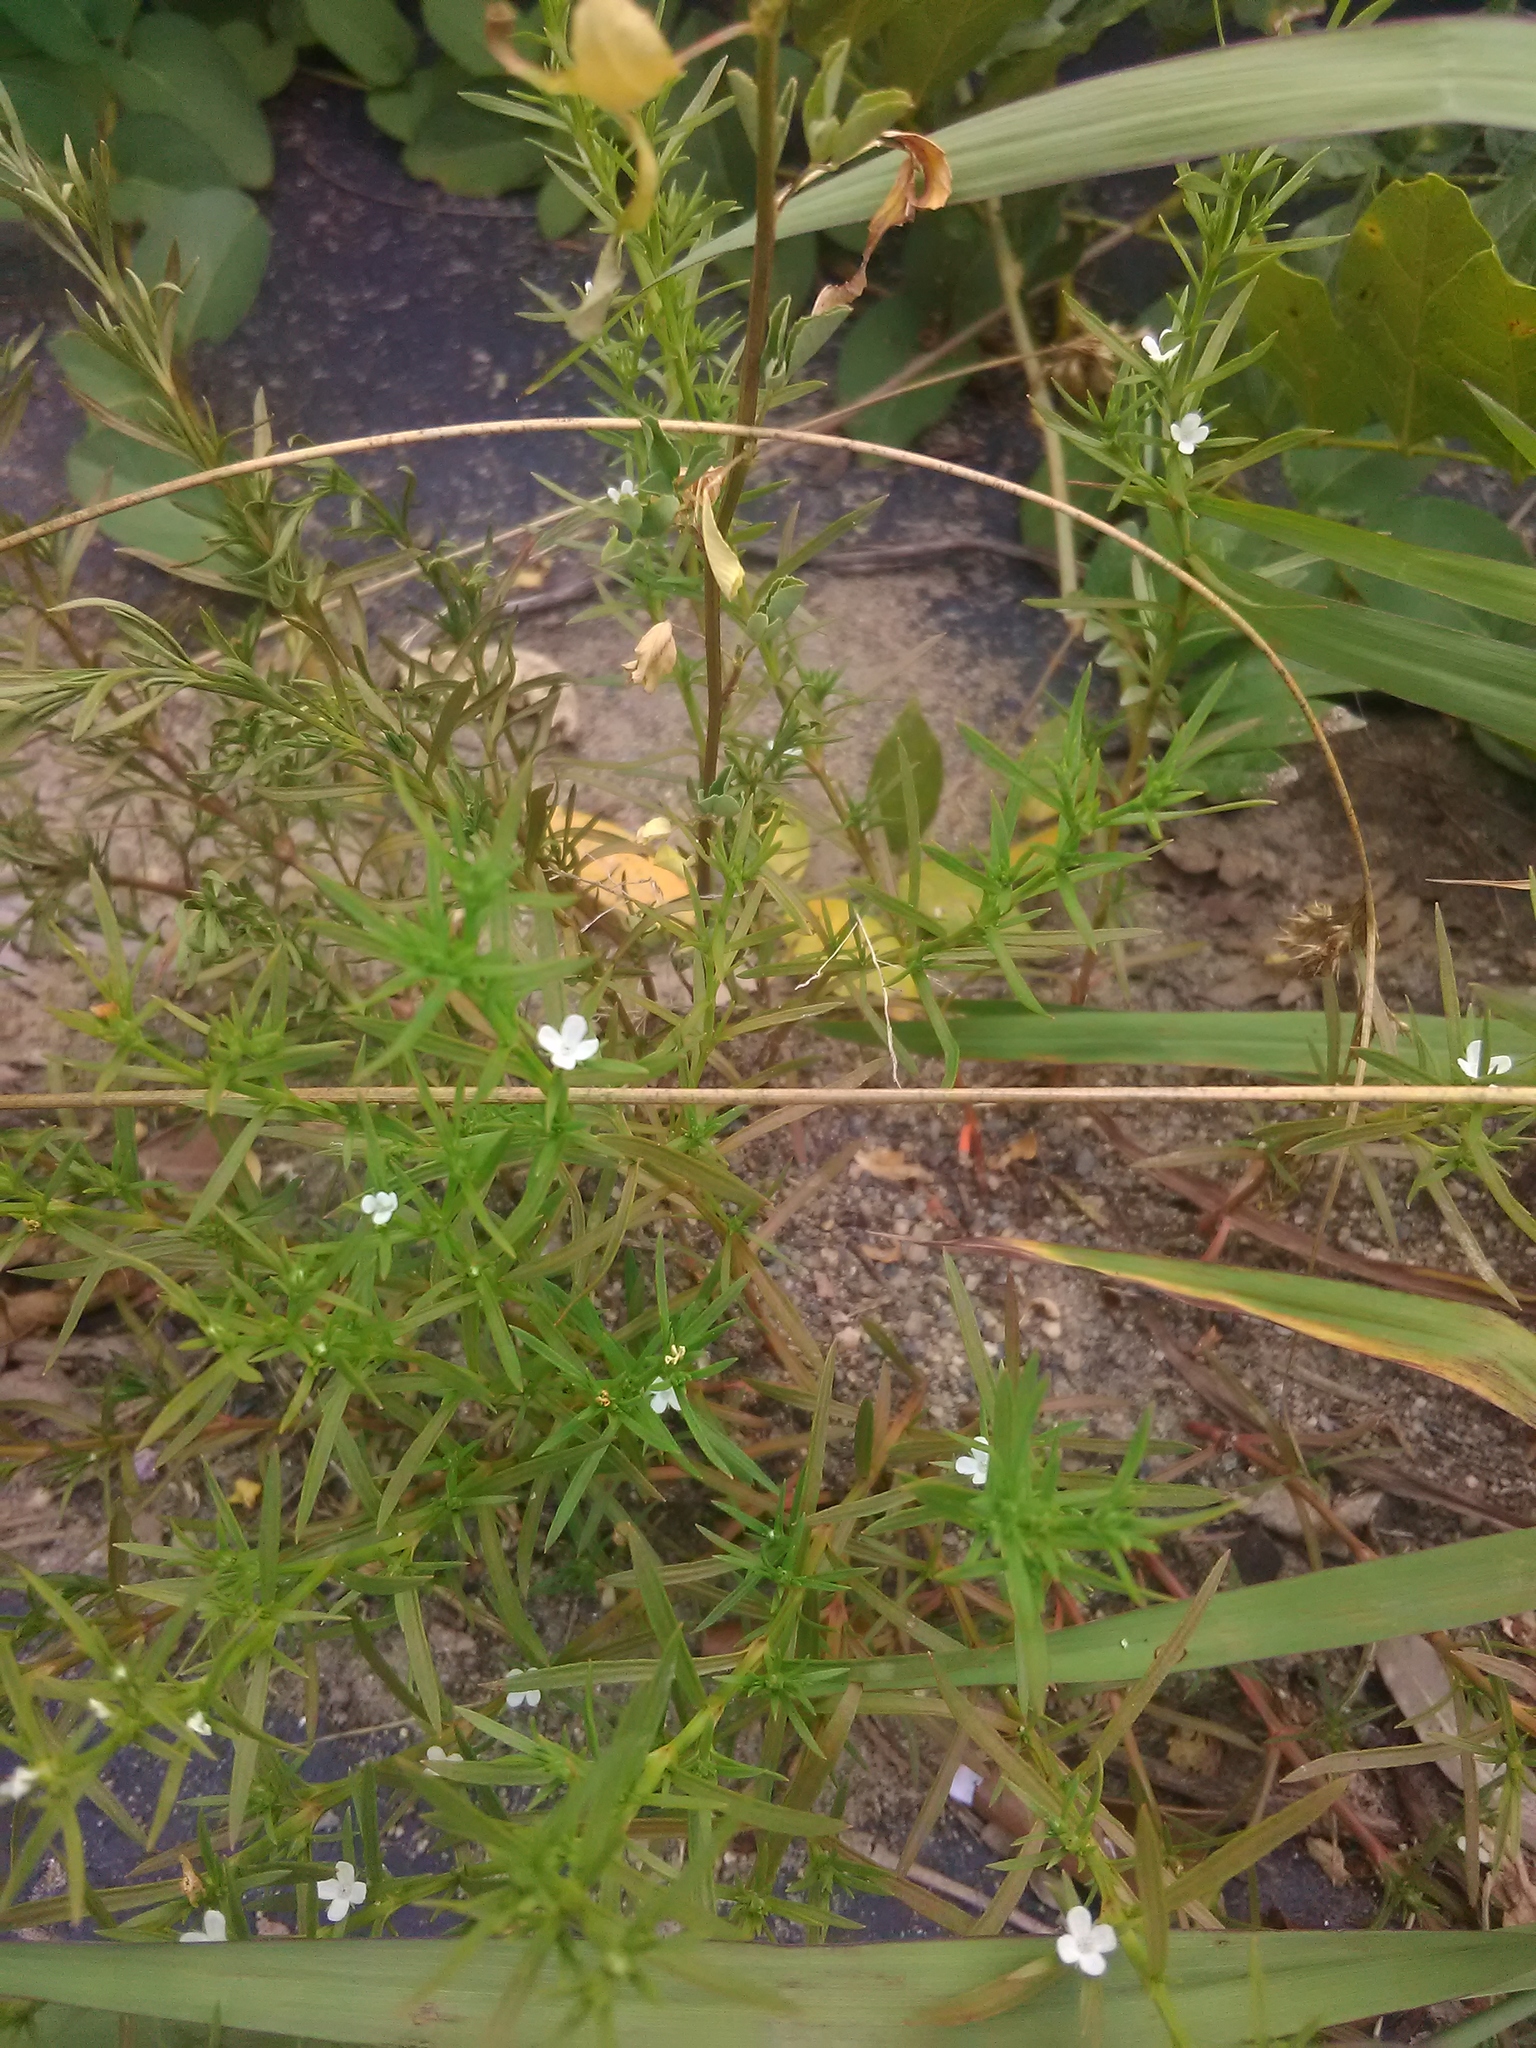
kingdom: Plantae
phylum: Tracheophyta
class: Magnoliopsida
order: Lamiales
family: Tetrachondraceae
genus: Polypremum
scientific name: Polypremum procumbens
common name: Juniper-leaf
